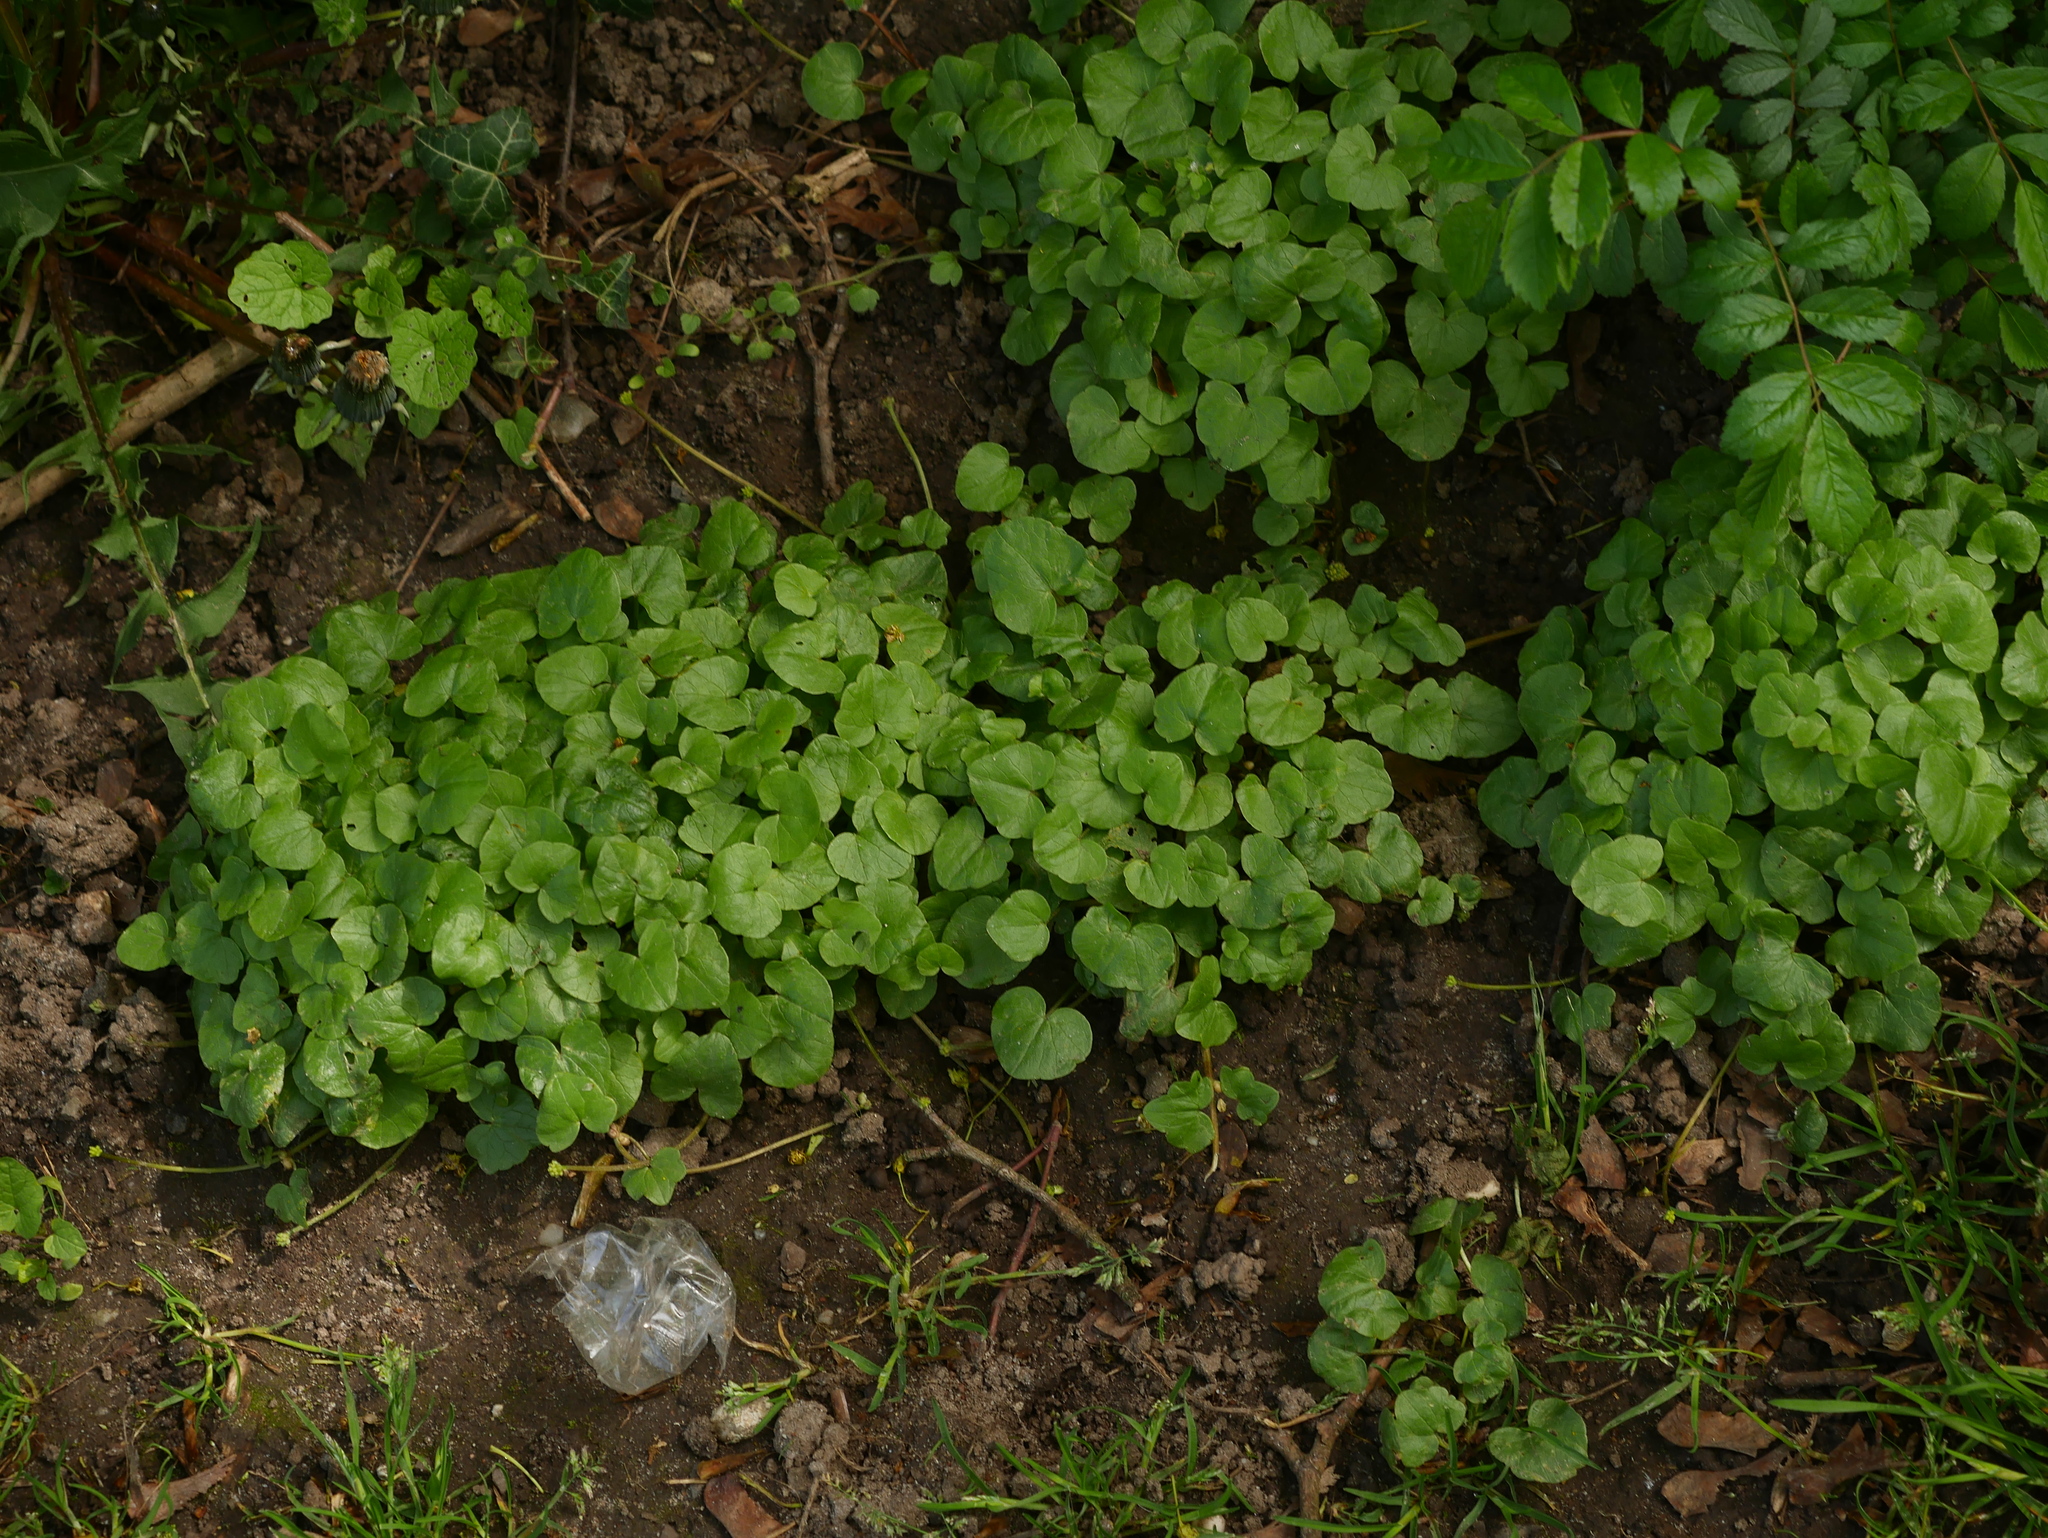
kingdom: Plantae
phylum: Tracheophyta
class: Magnoliopsida
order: Ranunculales
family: Ranunculaceae
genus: Ficaria
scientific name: Ficaria verna
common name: Lesser celandine
